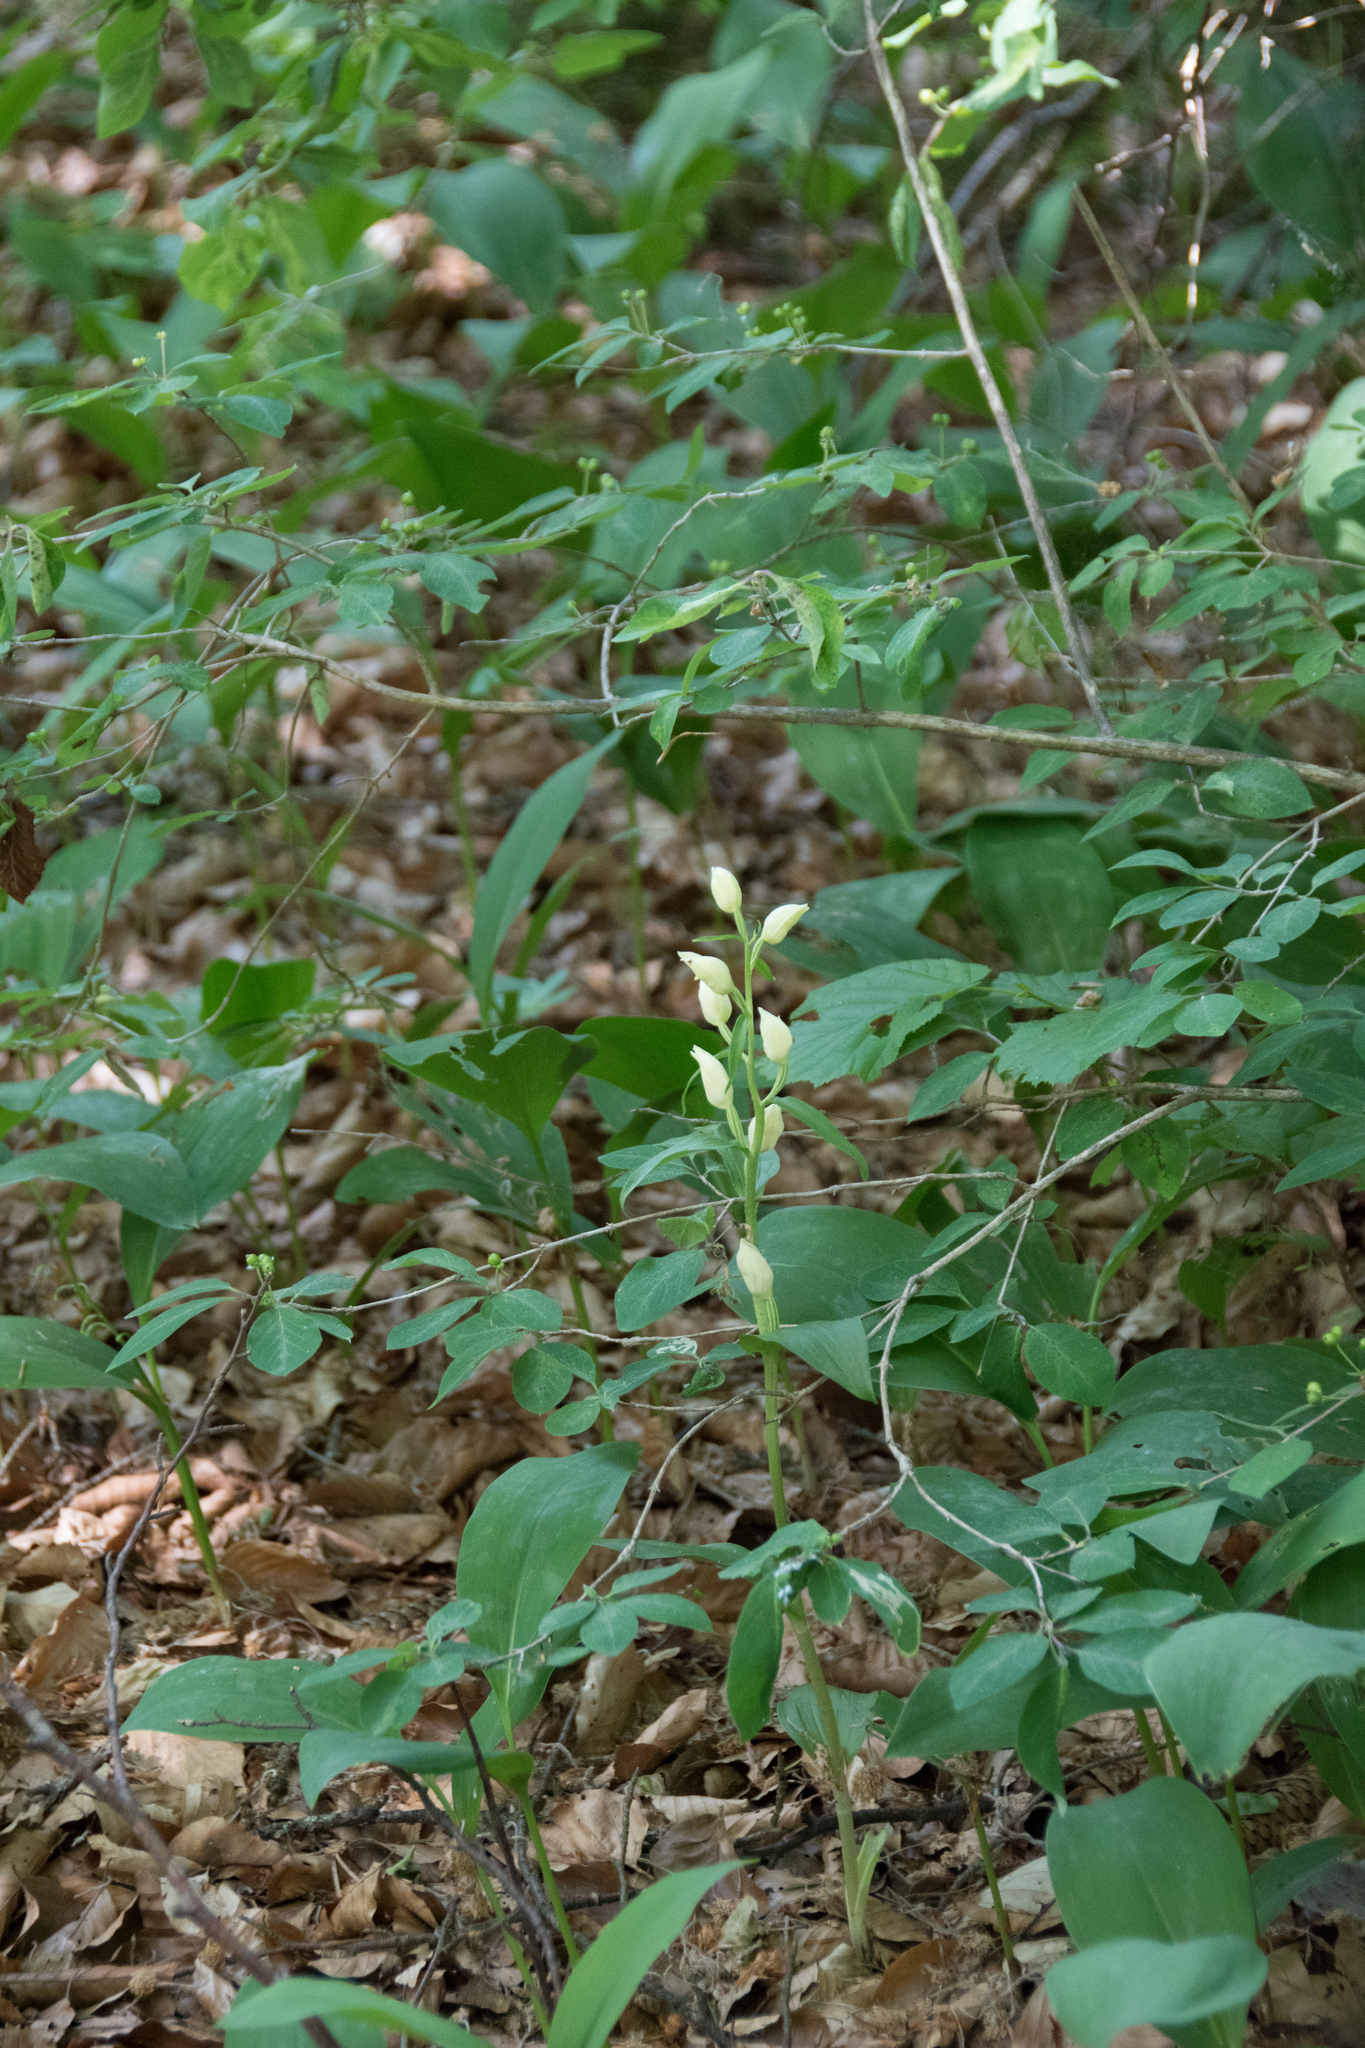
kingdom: Plantae
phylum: Tracheophyta
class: Liliopsida
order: Asparagales
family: Orchidaceae
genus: Cephalanthera
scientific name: Cephalanthera damasonium
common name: White helleborine
